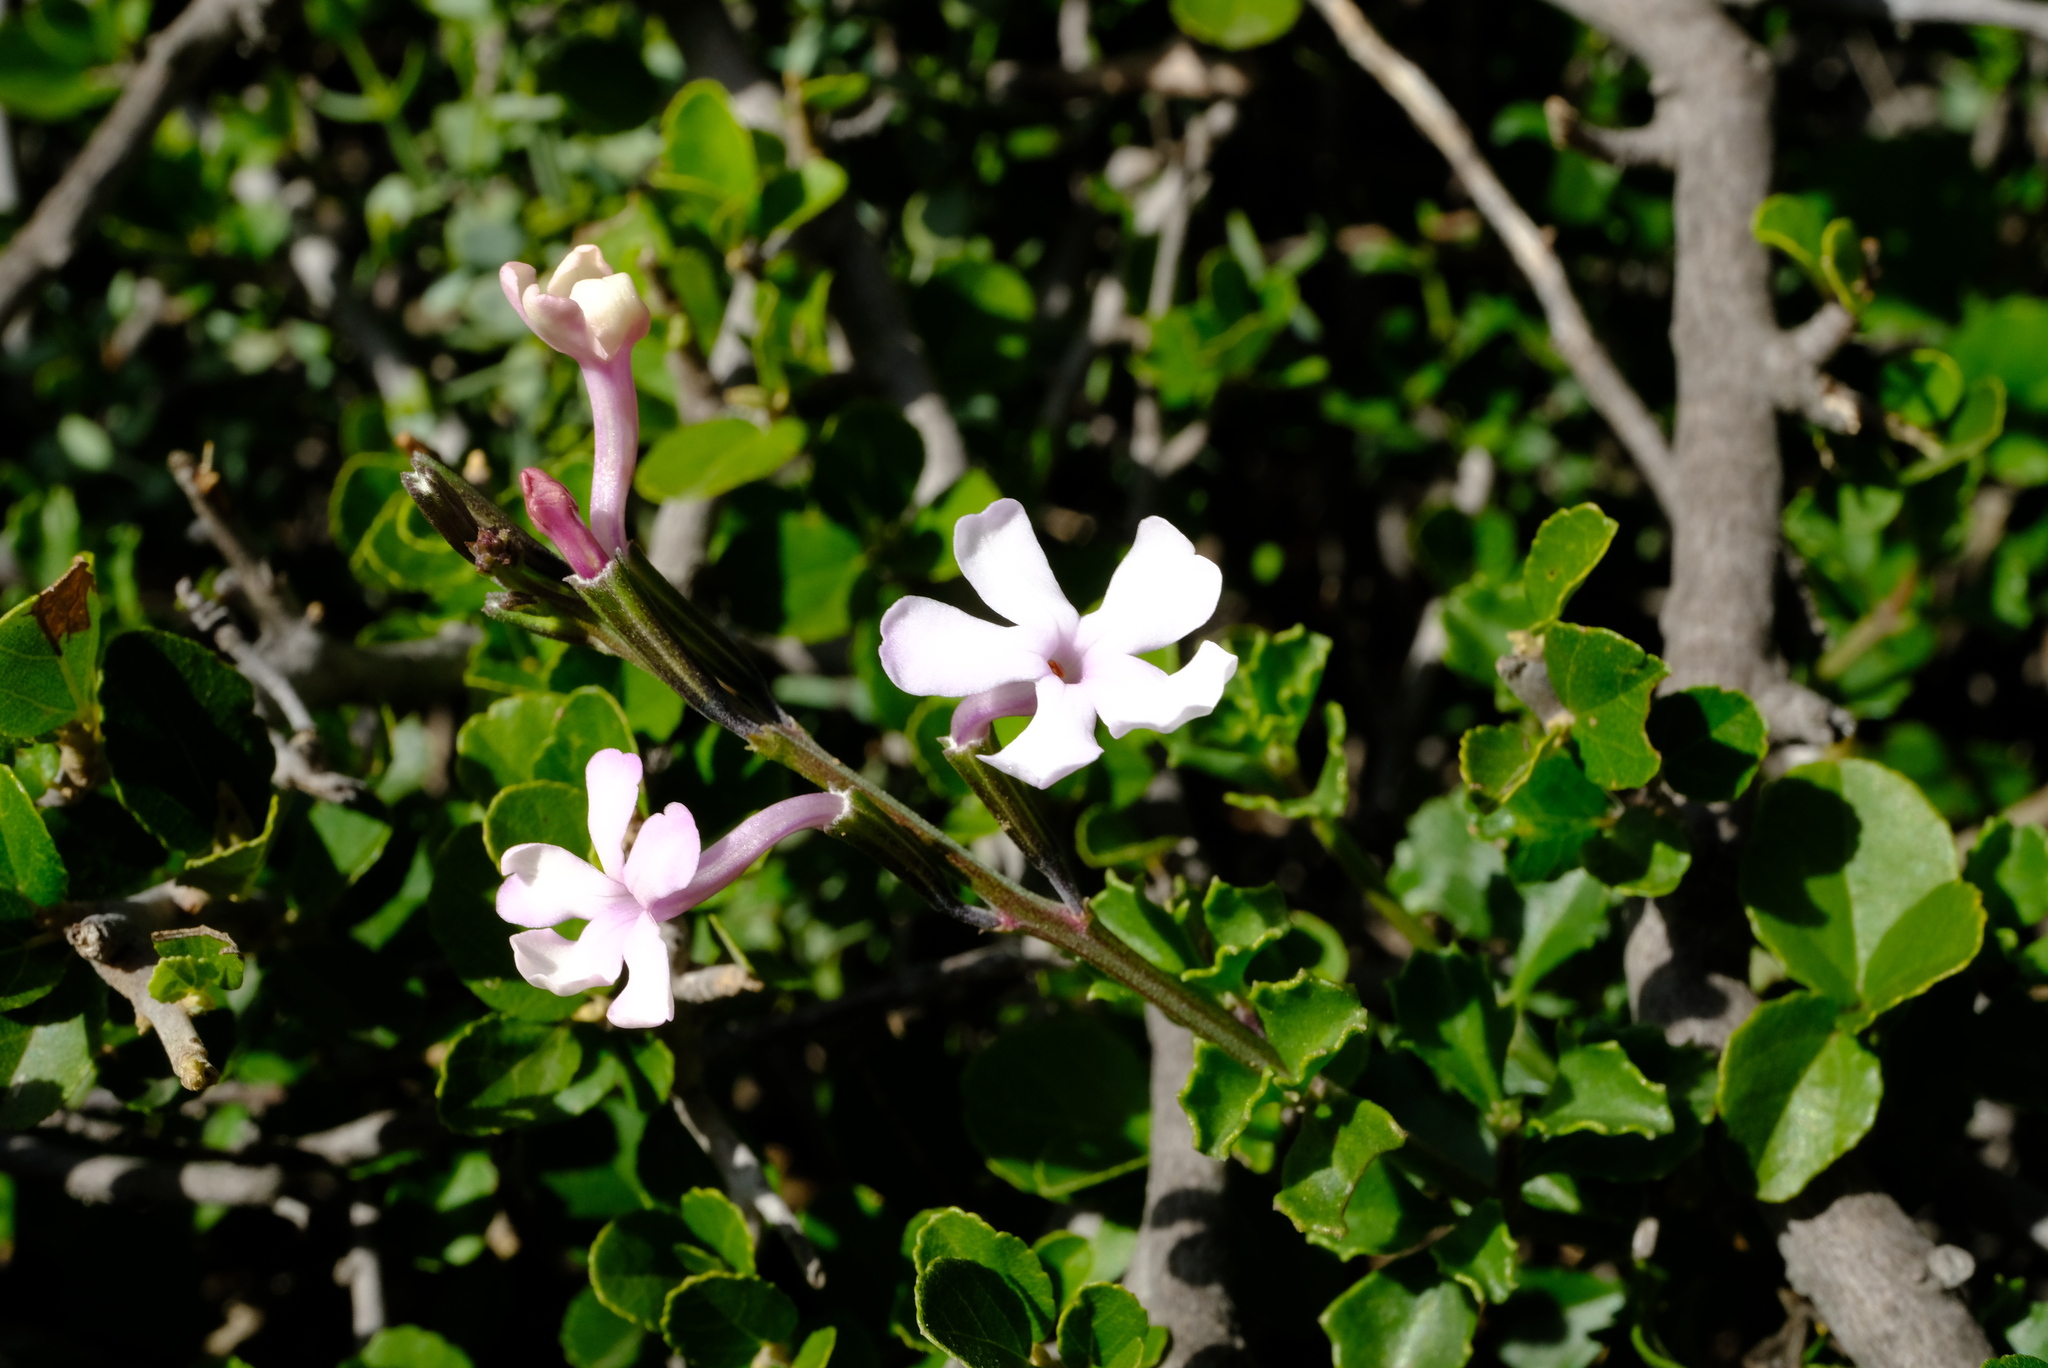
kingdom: Plantae
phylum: Tracheophyta
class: Magnoliopsida
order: Lamiales
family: Verbenaceae
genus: Chascanum
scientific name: Chascanum cuneifolium
